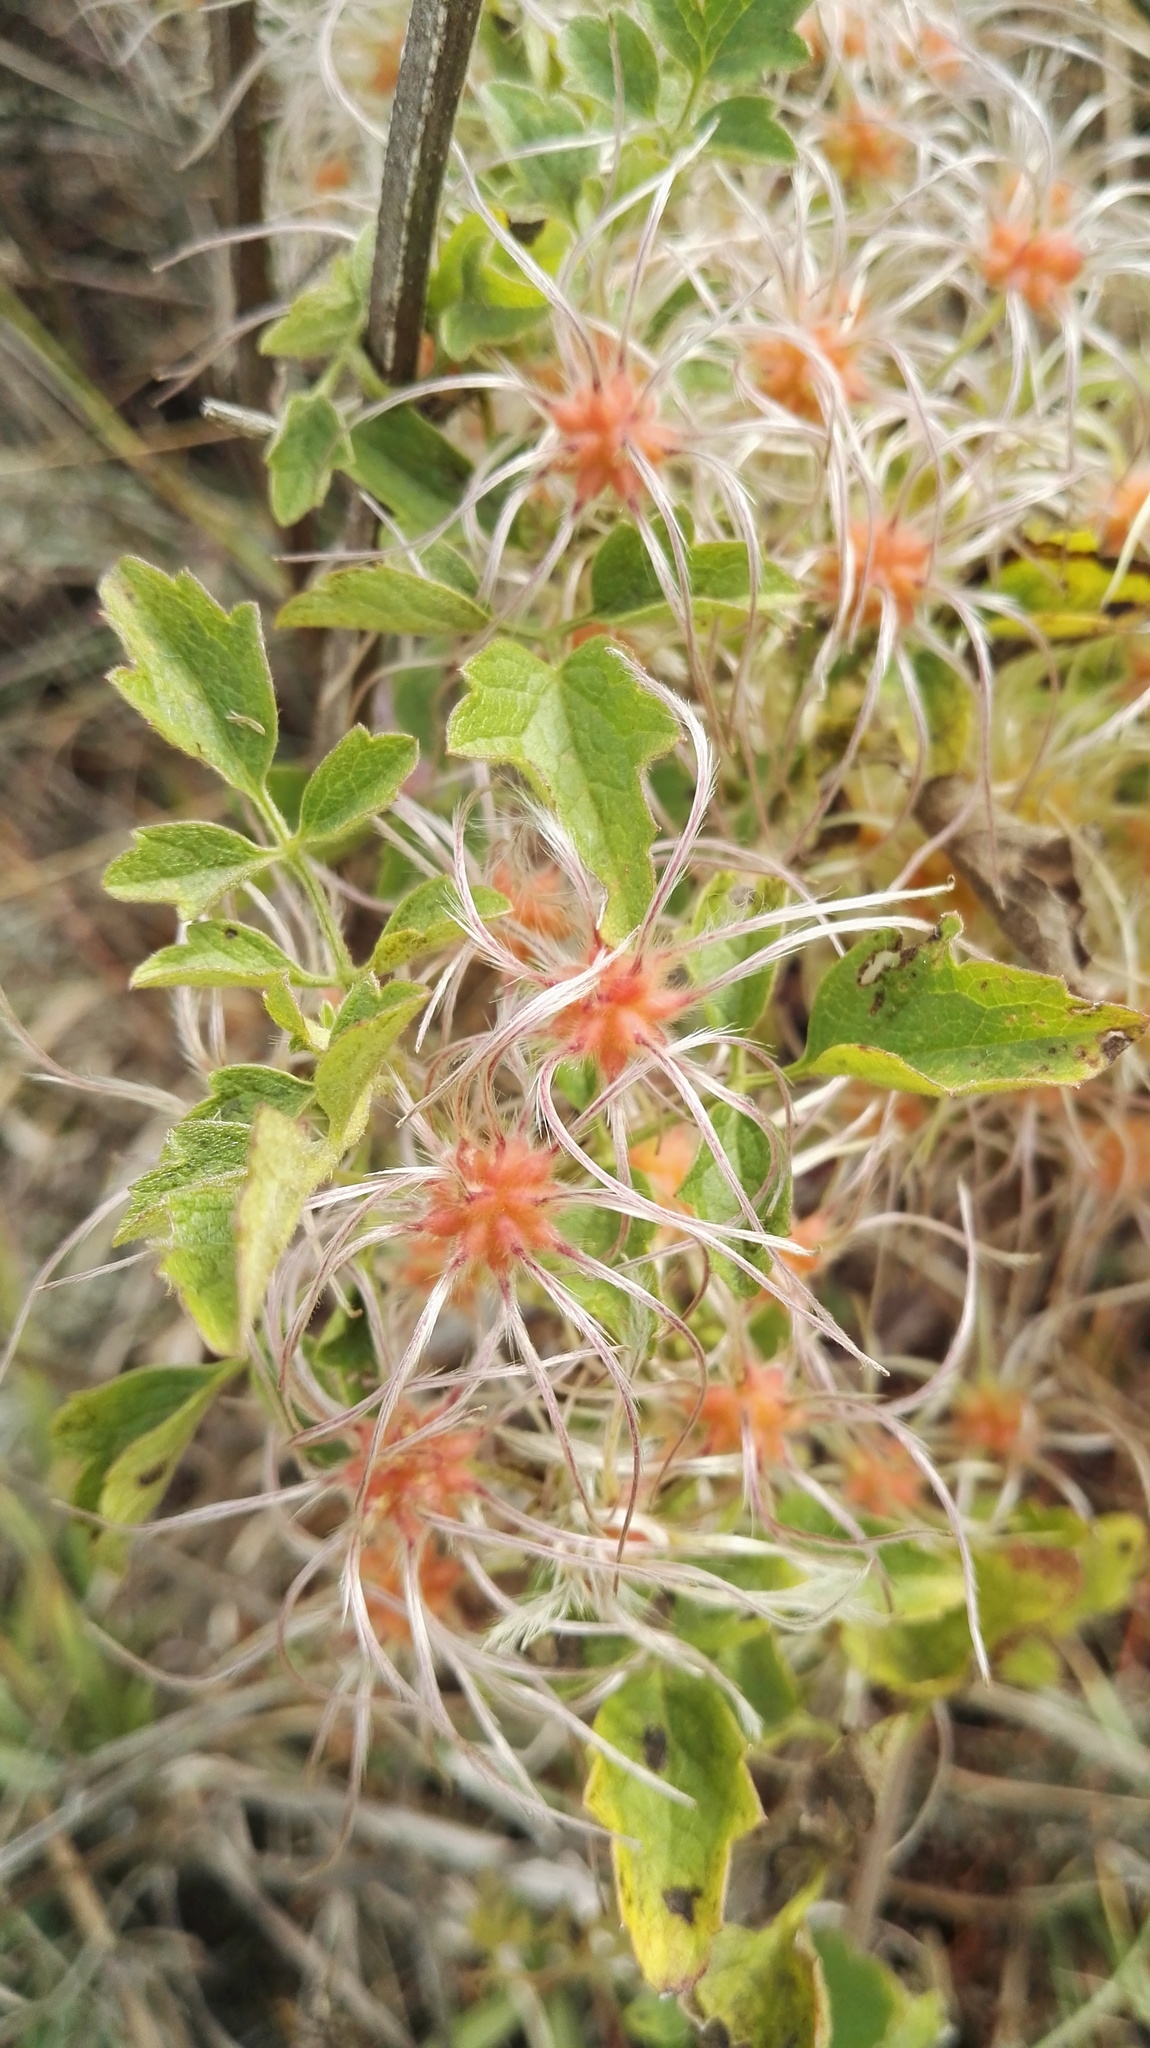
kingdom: Plantae
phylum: Tracheophyta
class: Magnoliopsida
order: Ranunculales
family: Ranunculaceae
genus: Clematis
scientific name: Clematis brachiata
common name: Traveler's-joy
